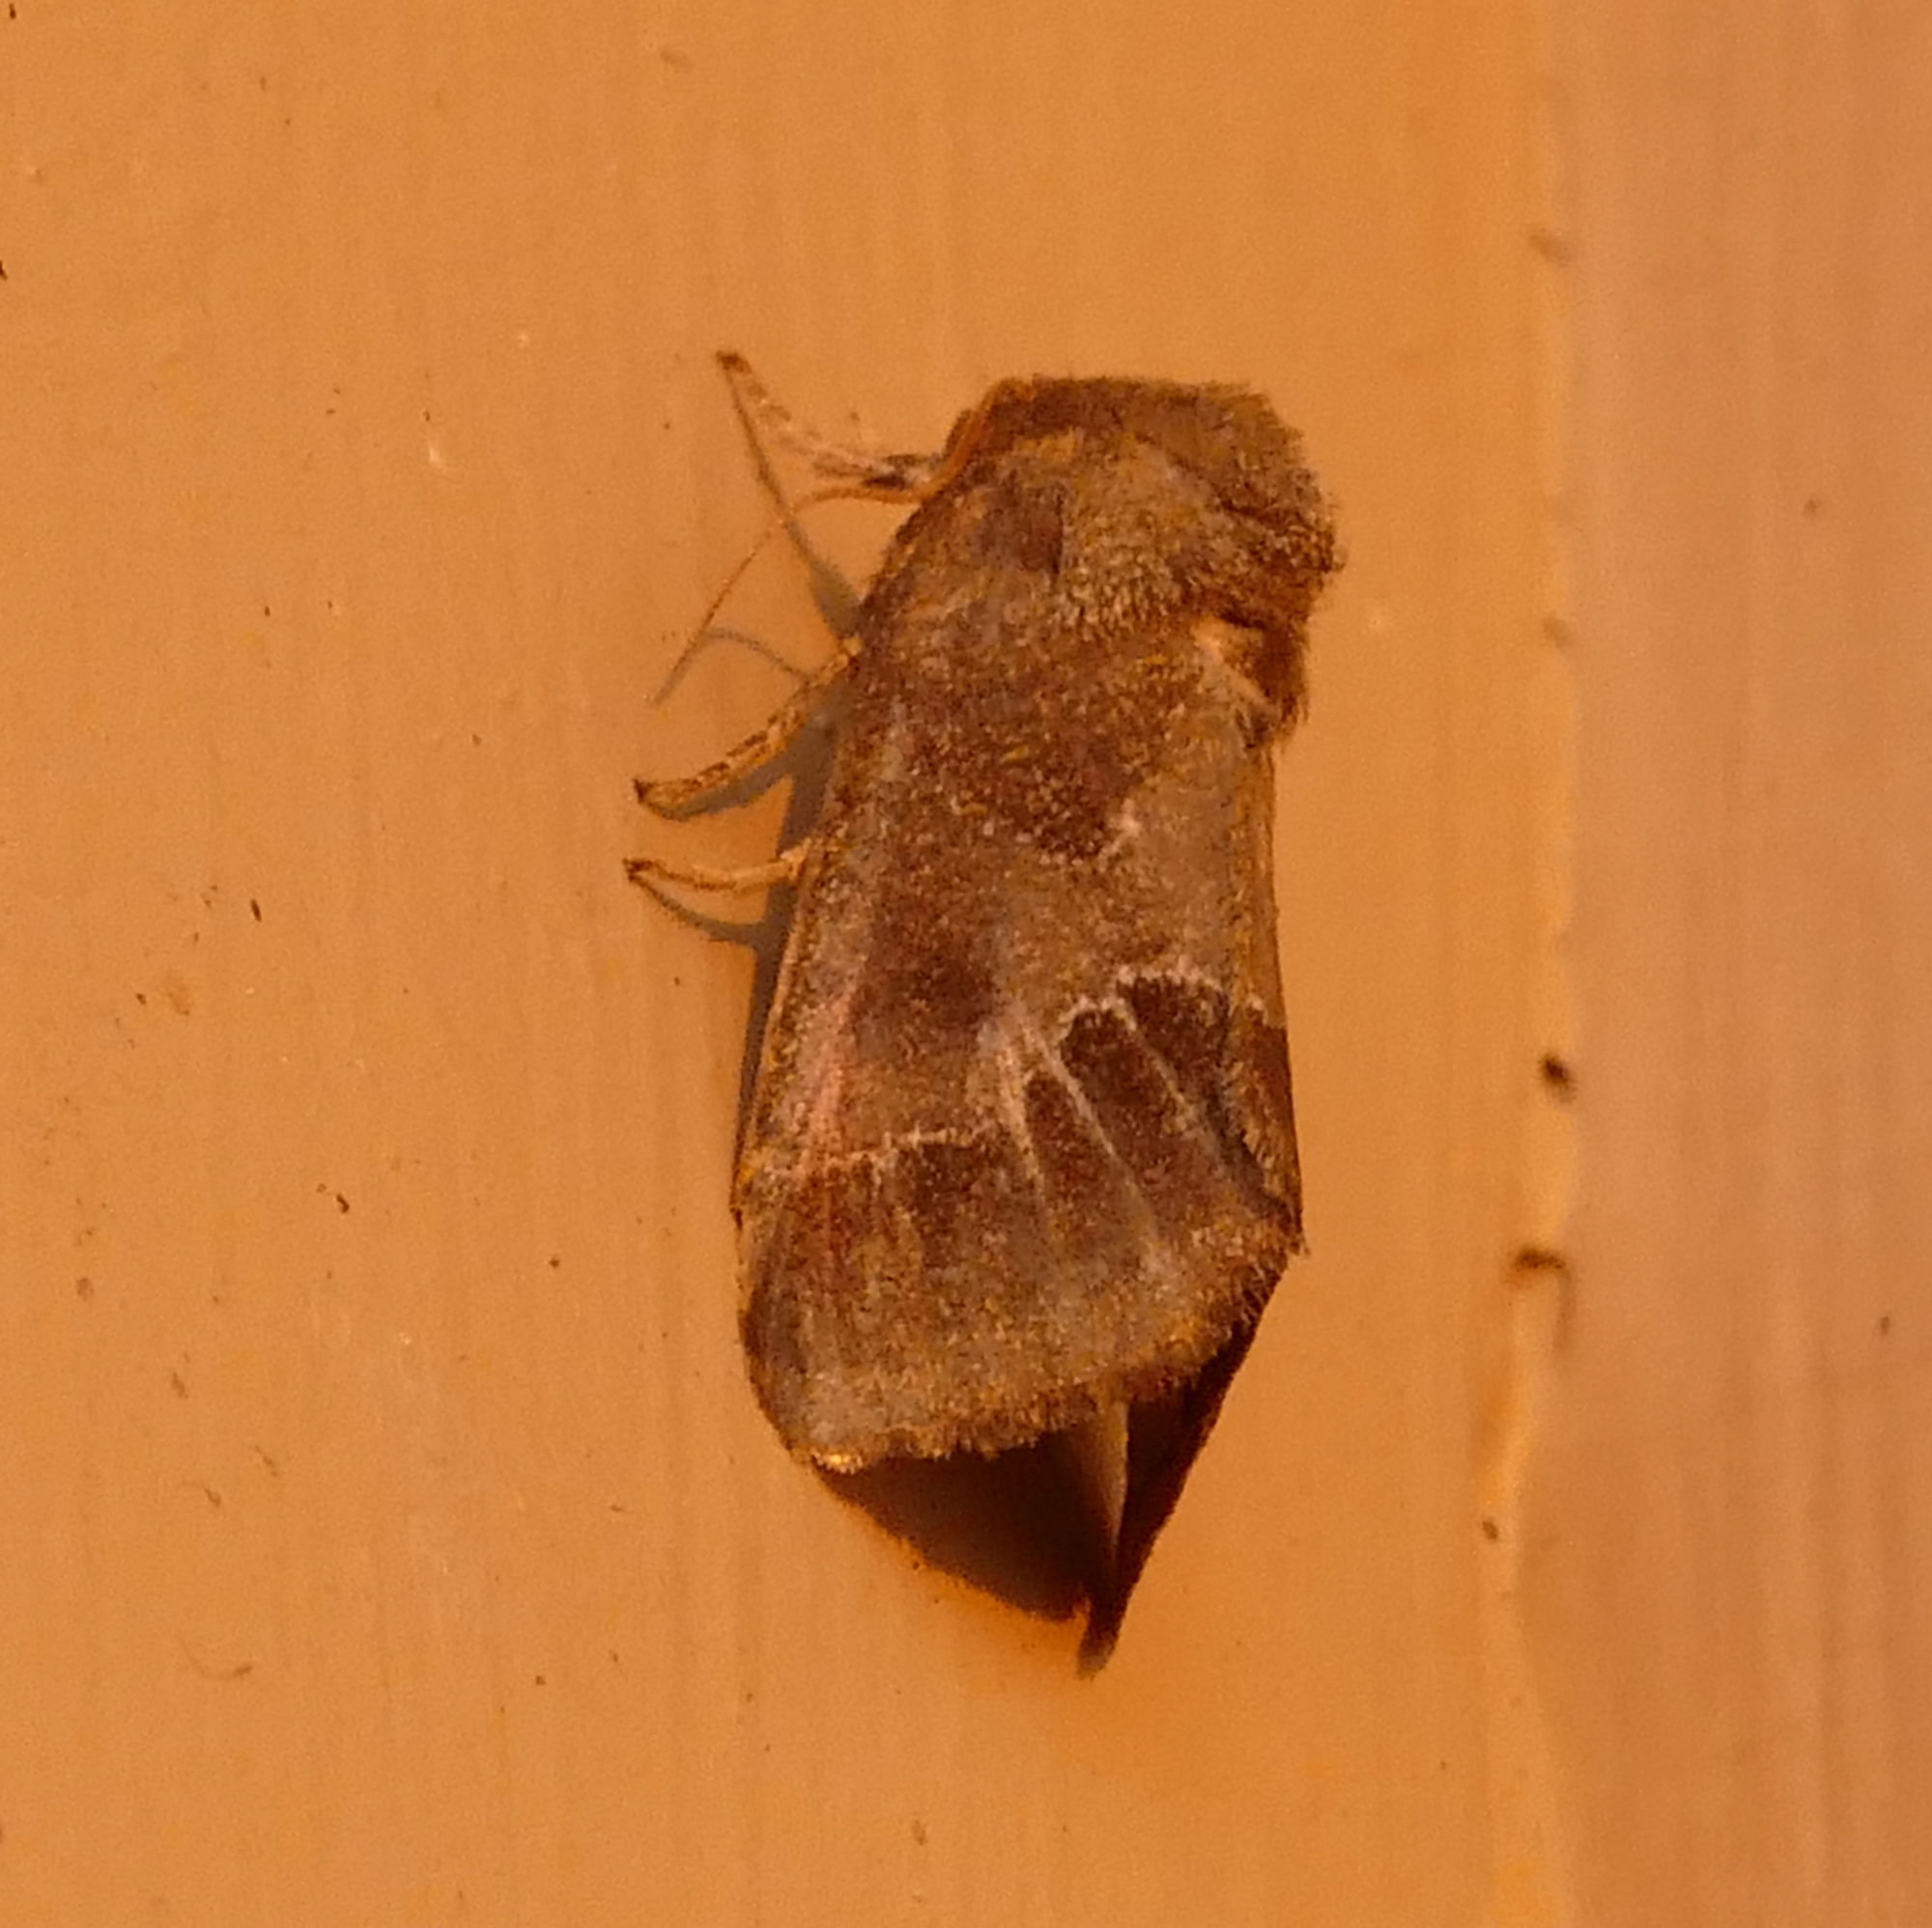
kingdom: Animalia
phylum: Arthropoda
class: Insecta
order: Lepidoptera
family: Noctuidae
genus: Schinia
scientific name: Schinia thoreaui
